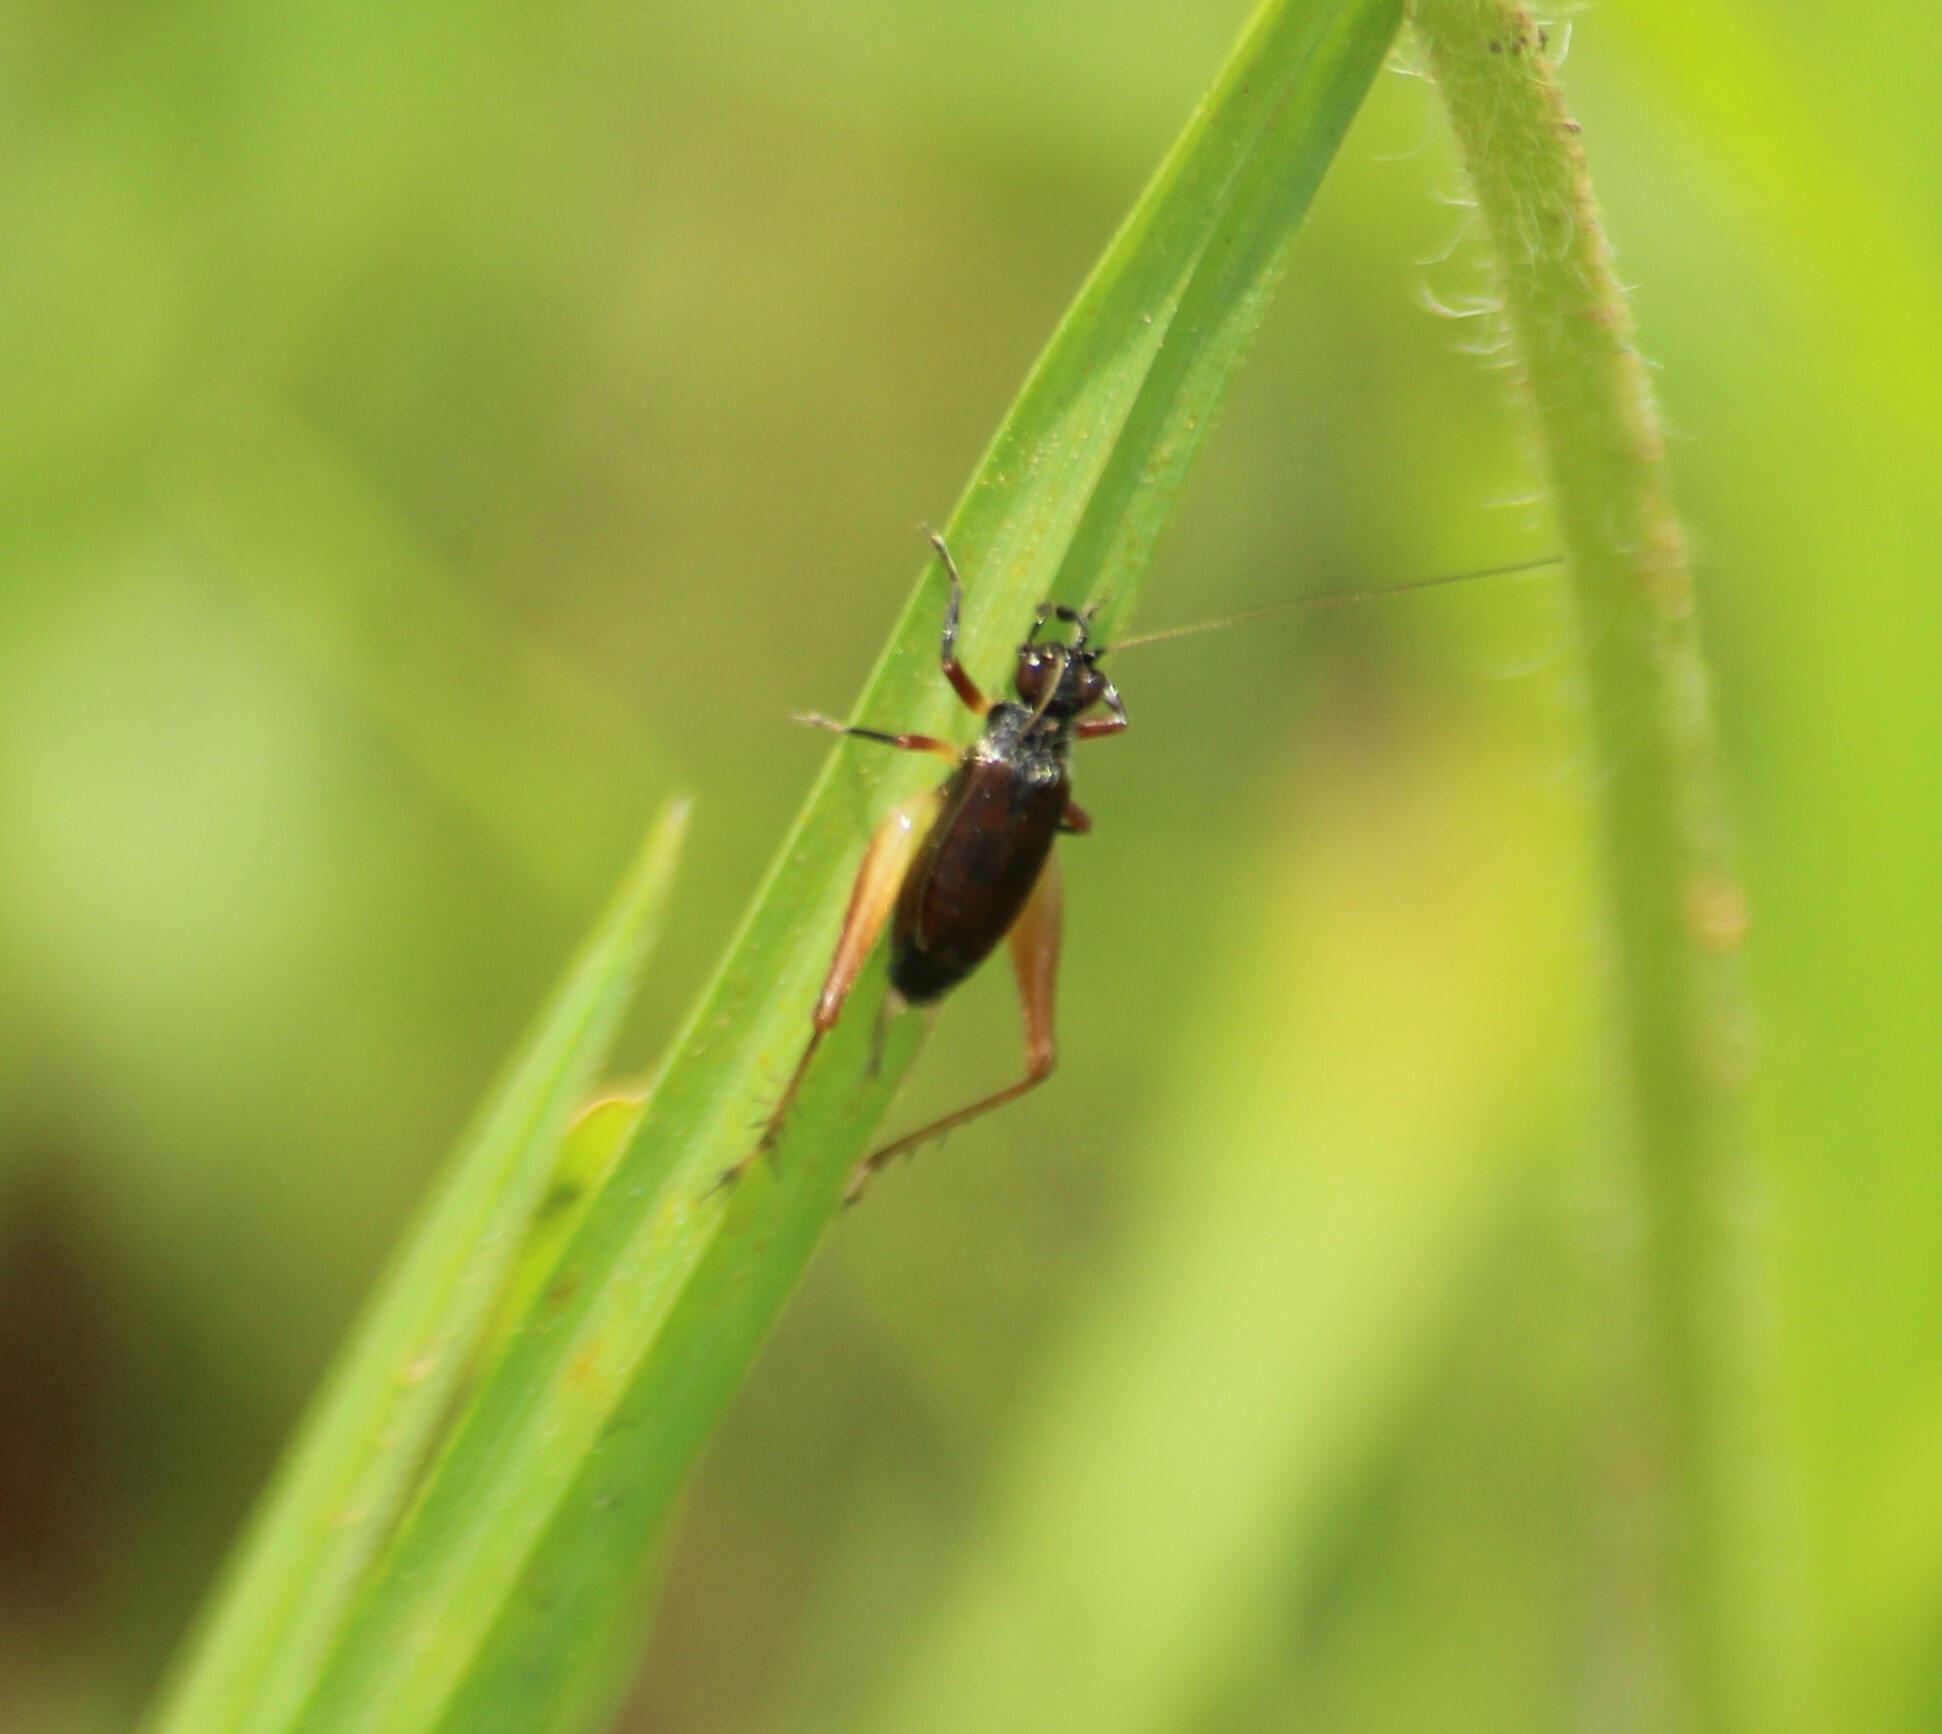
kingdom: Animalia
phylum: Arthropoda
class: Insecta
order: Orthoptera
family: Trigonidiidae
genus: Trigonidium
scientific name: Trigonidium cicindeloides
